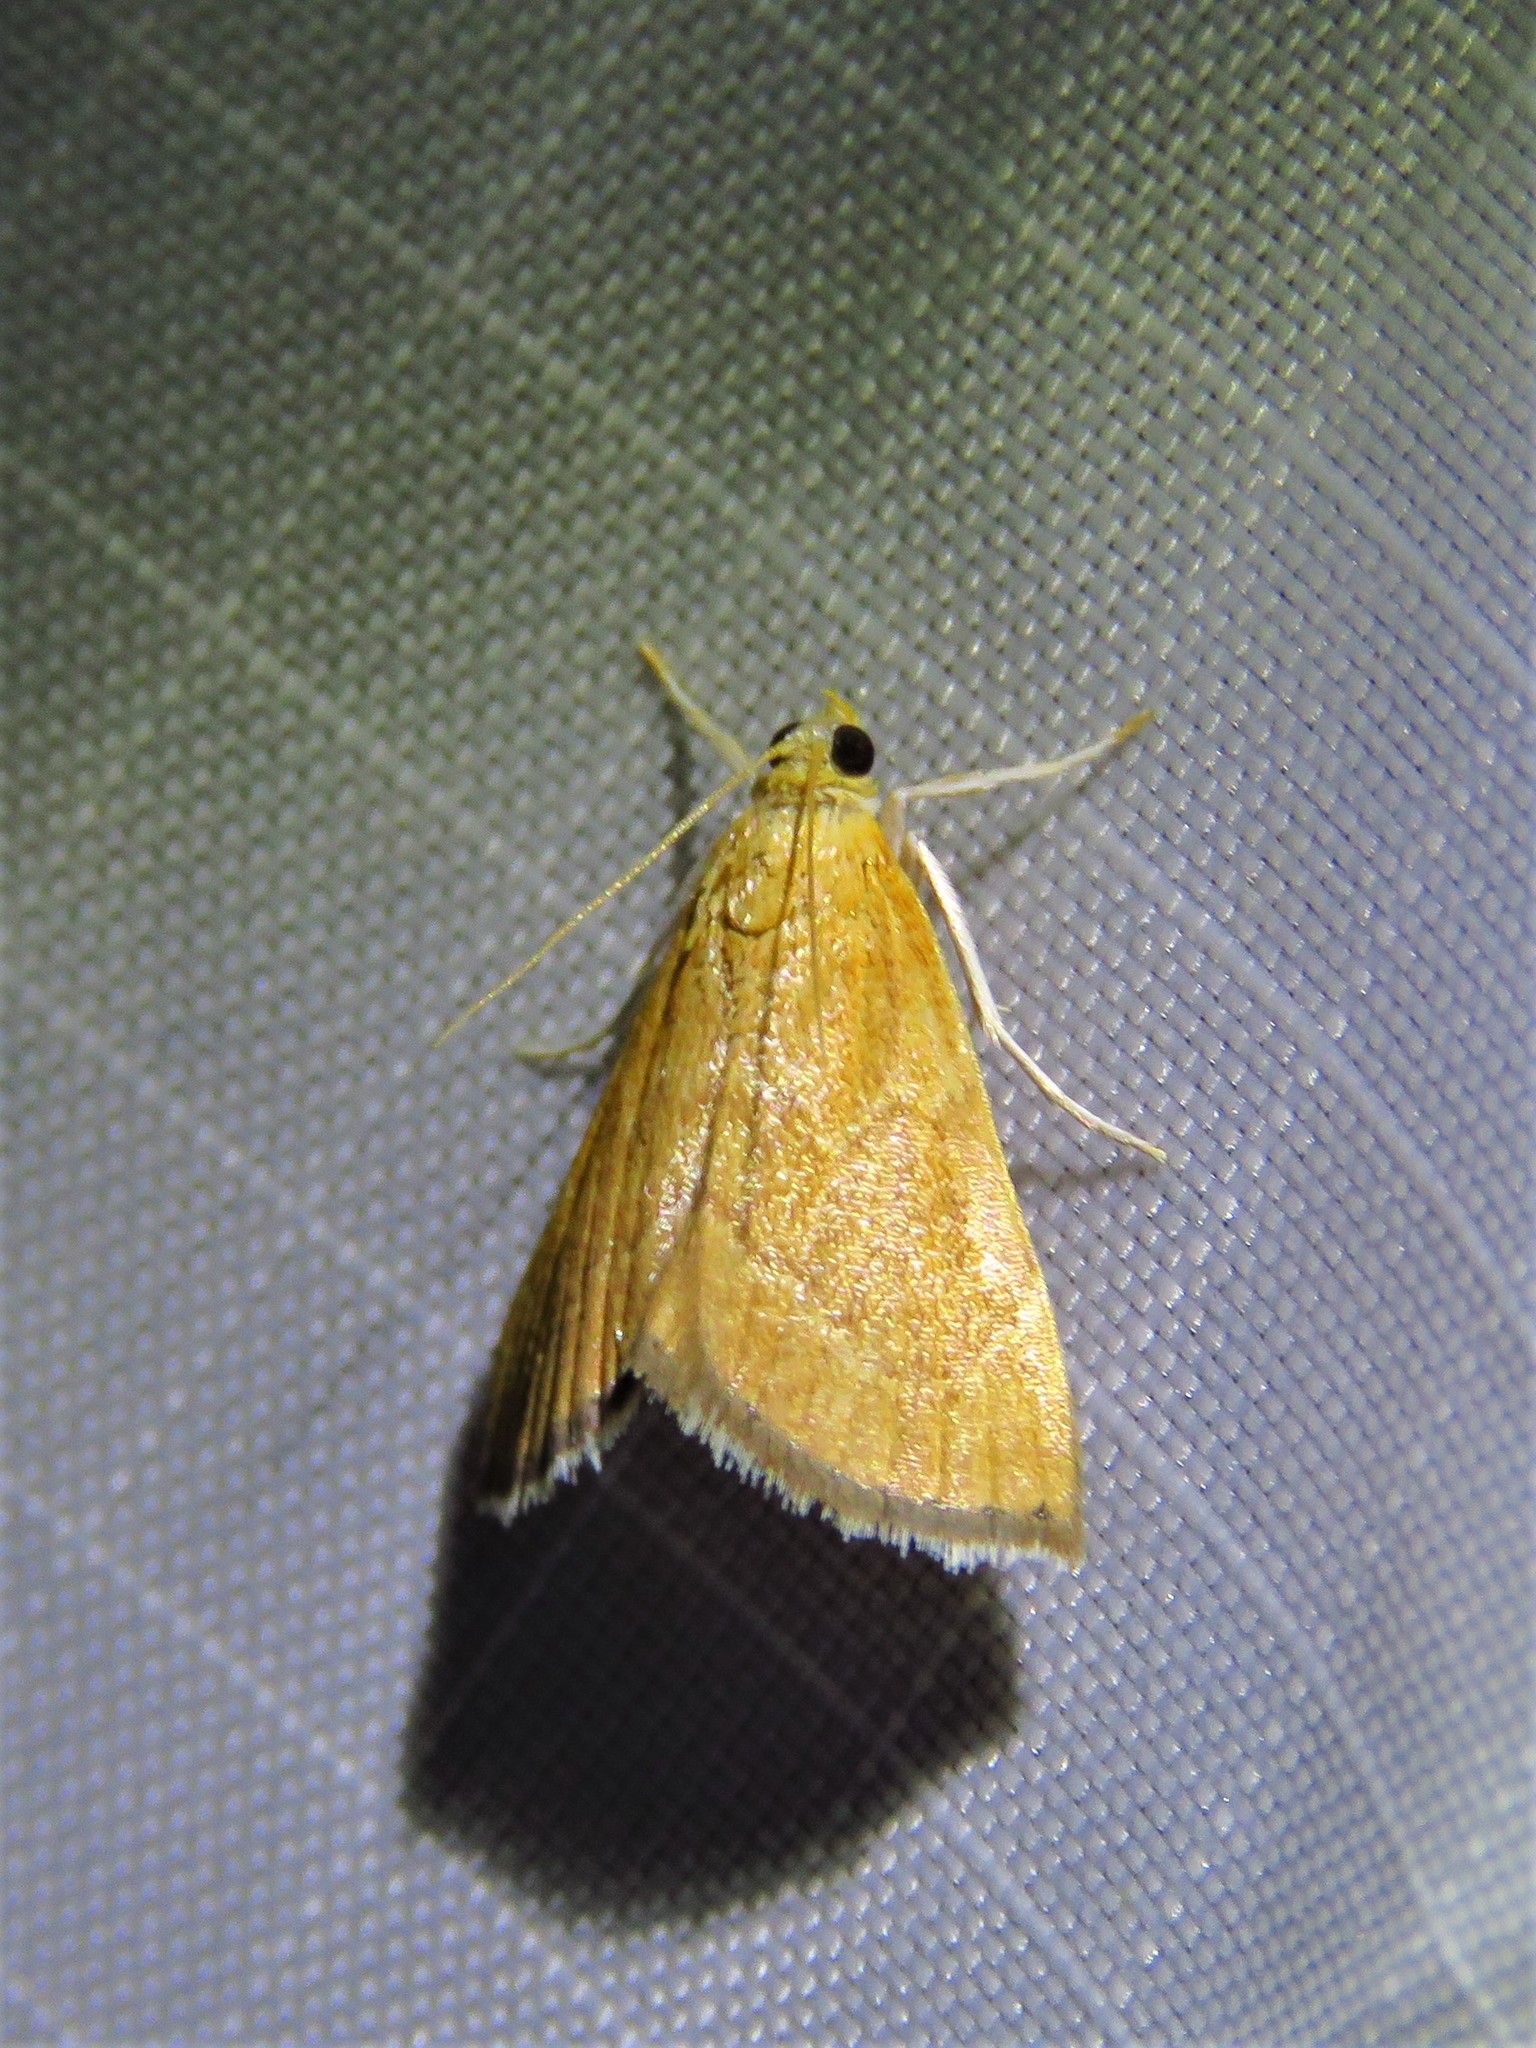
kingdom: Animalia
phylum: Arthropoda
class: Insecta
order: Lepidoptera
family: Crambidae
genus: Glaphyria
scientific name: Glaphyria invisalis
